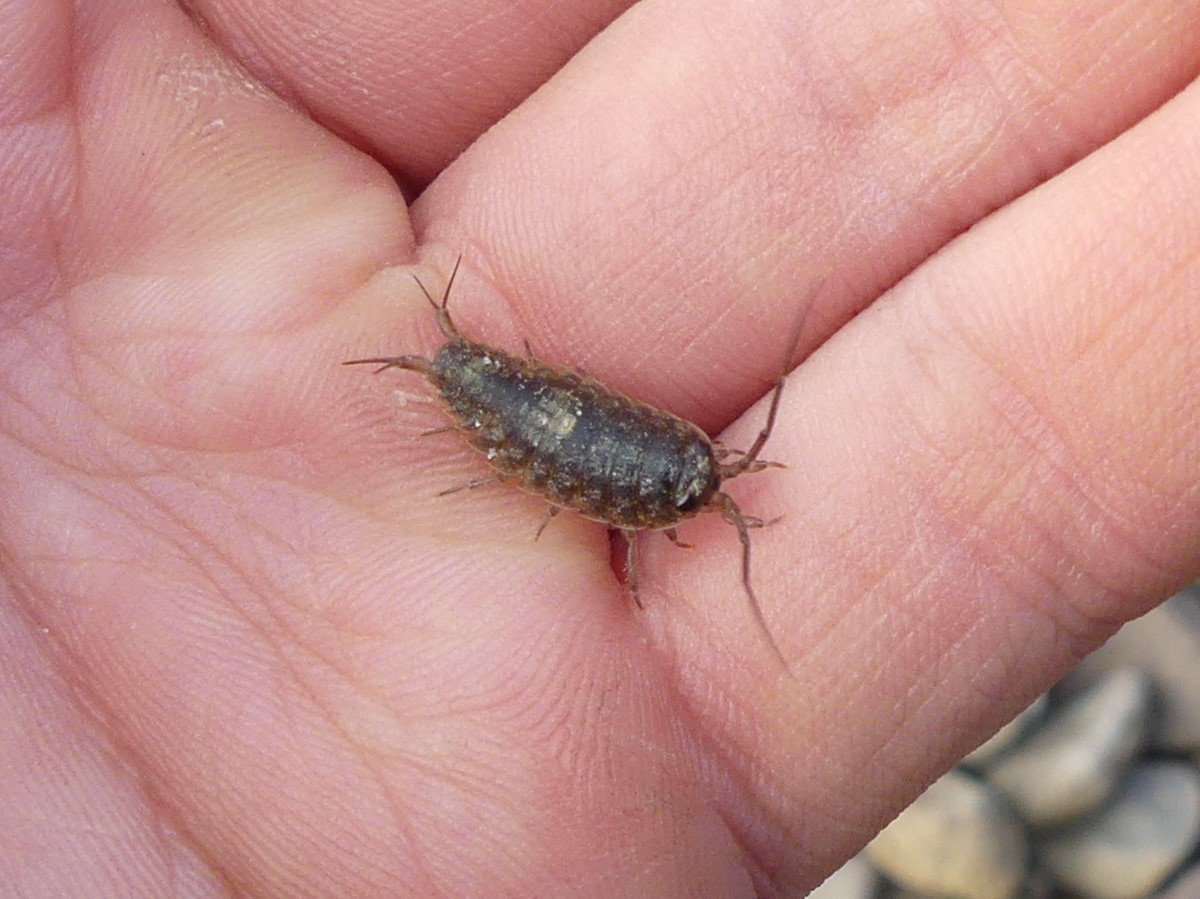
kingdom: Animalia
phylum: Arthropoda
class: Malacostraca
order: Isopoda
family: Ligiidae
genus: Ligia
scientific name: Ligia australiensis
